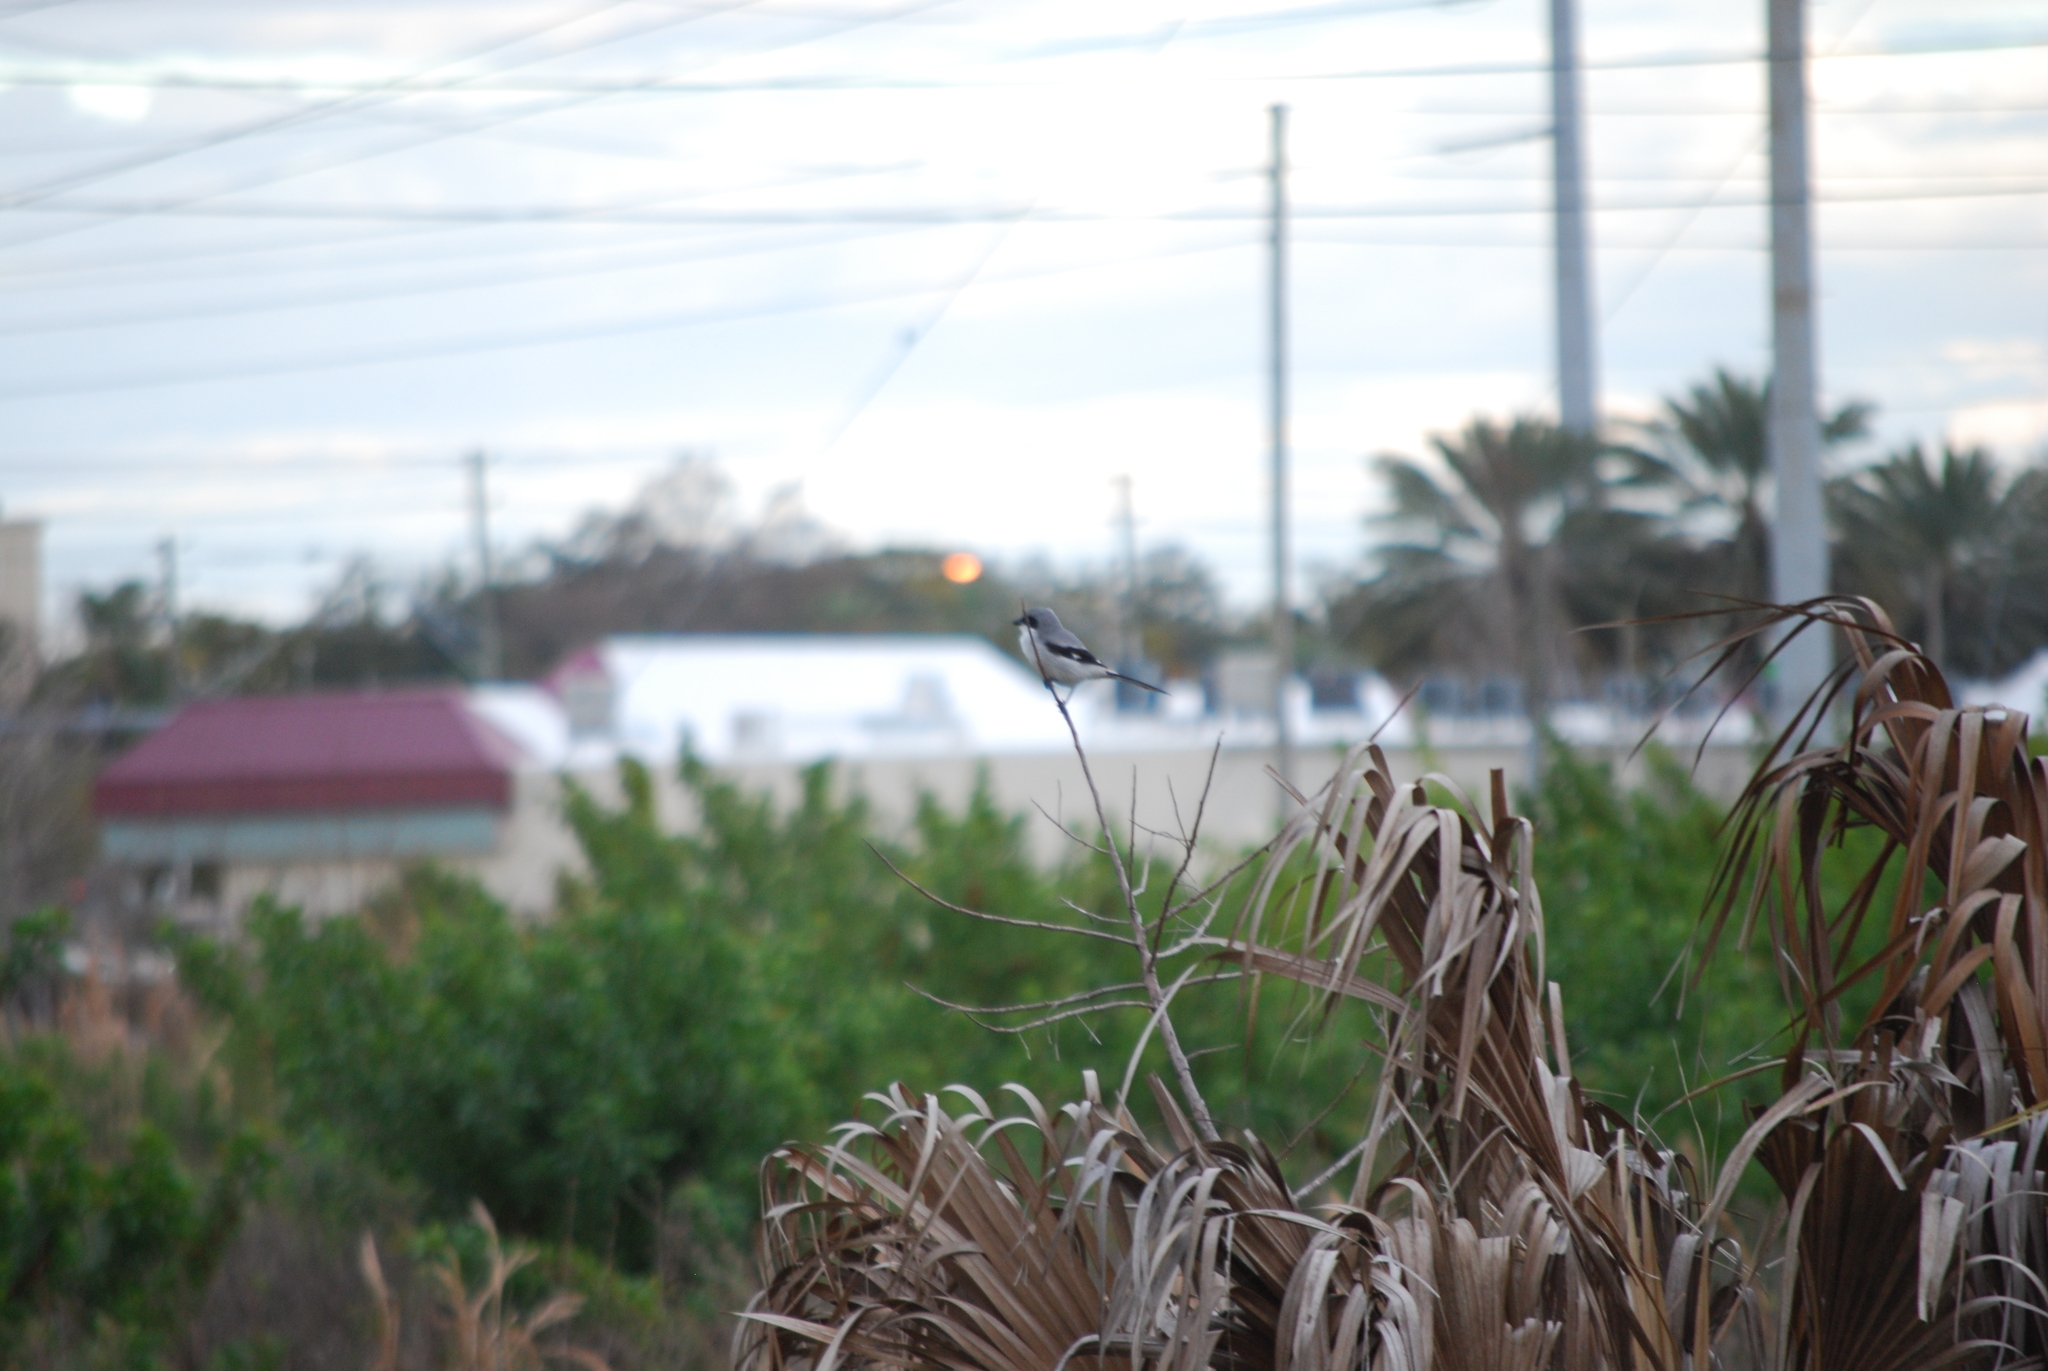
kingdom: Animalia
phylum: Chordata
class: Aves
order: Passeriformes
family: Laniidae
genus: Lanius
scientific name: Lanius ludovicianus
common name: Loggerhead shrike
